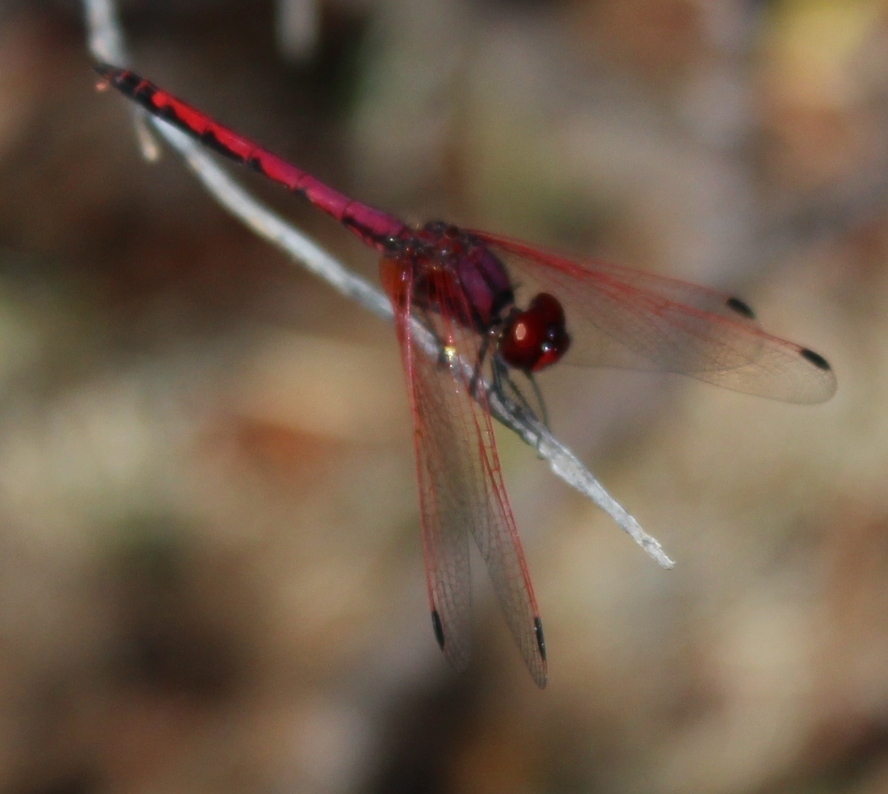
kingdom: Animalia
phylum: Arthropoda
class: Insecta
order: Odonata
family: Libellulidae
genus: Trithemis
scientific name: Trithemis arteriosa
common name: Red-veined dropwing
